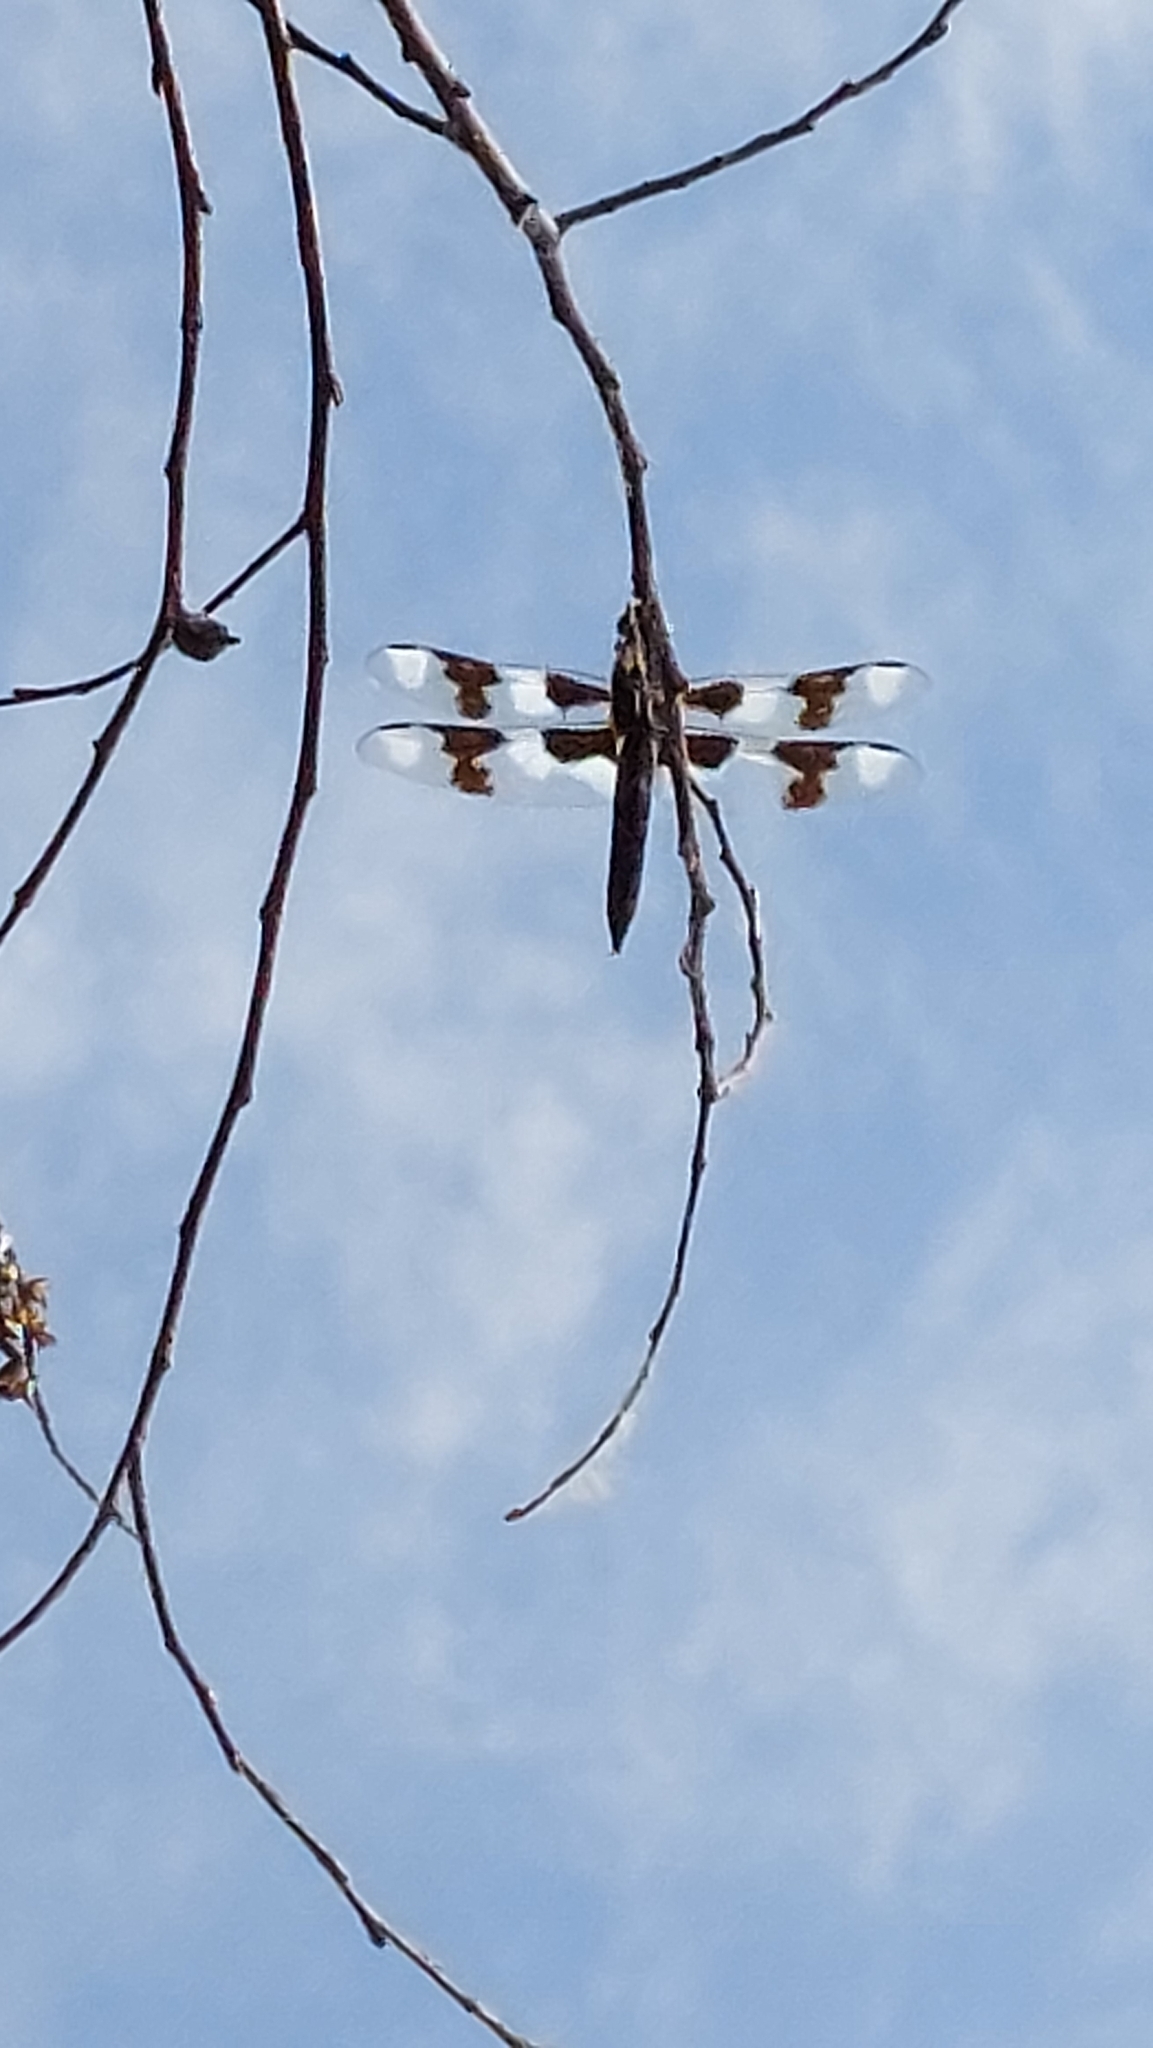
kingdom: Animalia
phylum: Arthropoda
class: Insecta
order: Odonata
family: Libellulidae
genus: Libellula
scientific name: Libellula forensis
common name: Eight-spotted skimmer
